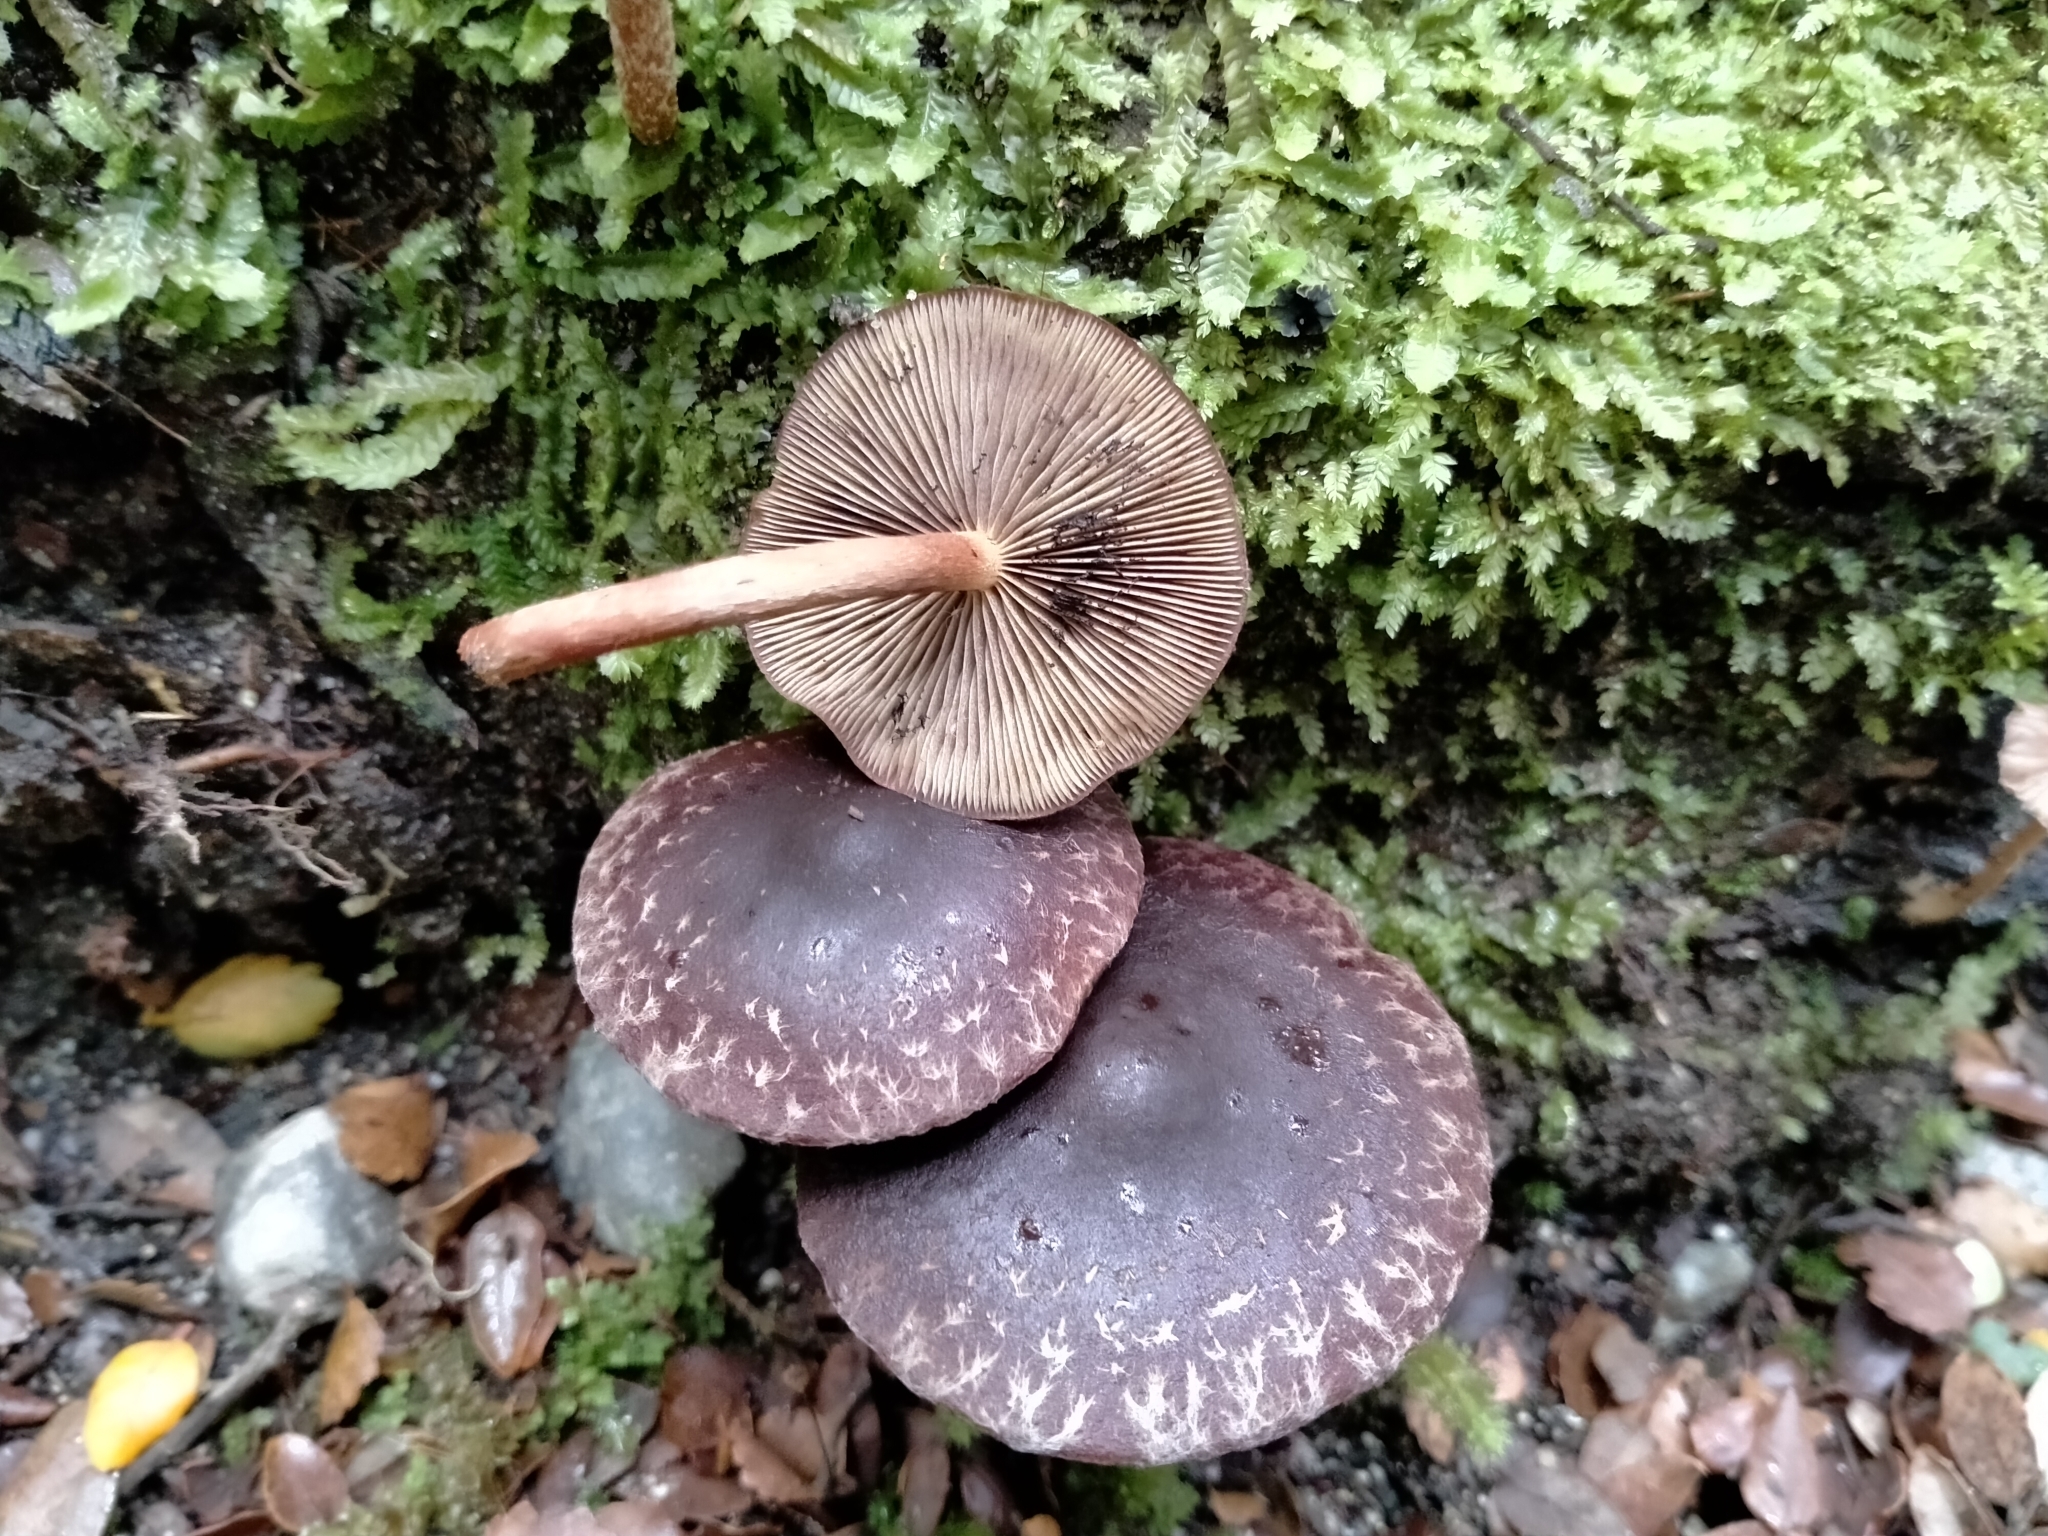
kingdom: Fungi
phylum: Basidiomycota
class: Agaricomycetes
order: Agaricales
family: Strophariaceae
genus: Hypholoma
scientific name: Hypholoma brunneum
